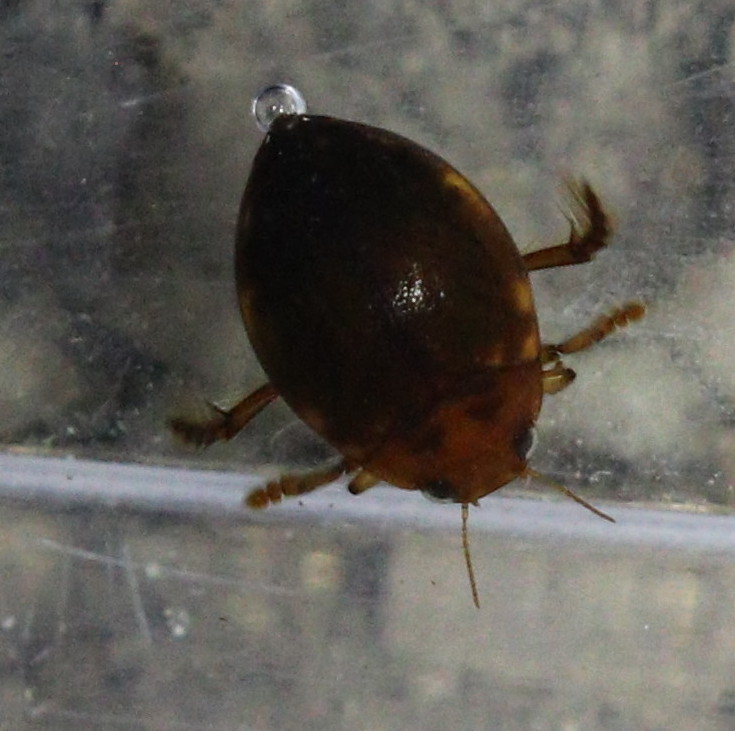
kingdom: Animalia
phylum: Arthropoda
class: Insecta
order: Coleoptera
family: Dytiscidae
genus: Hyphydrus
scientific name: Hyphydrus ovatus
